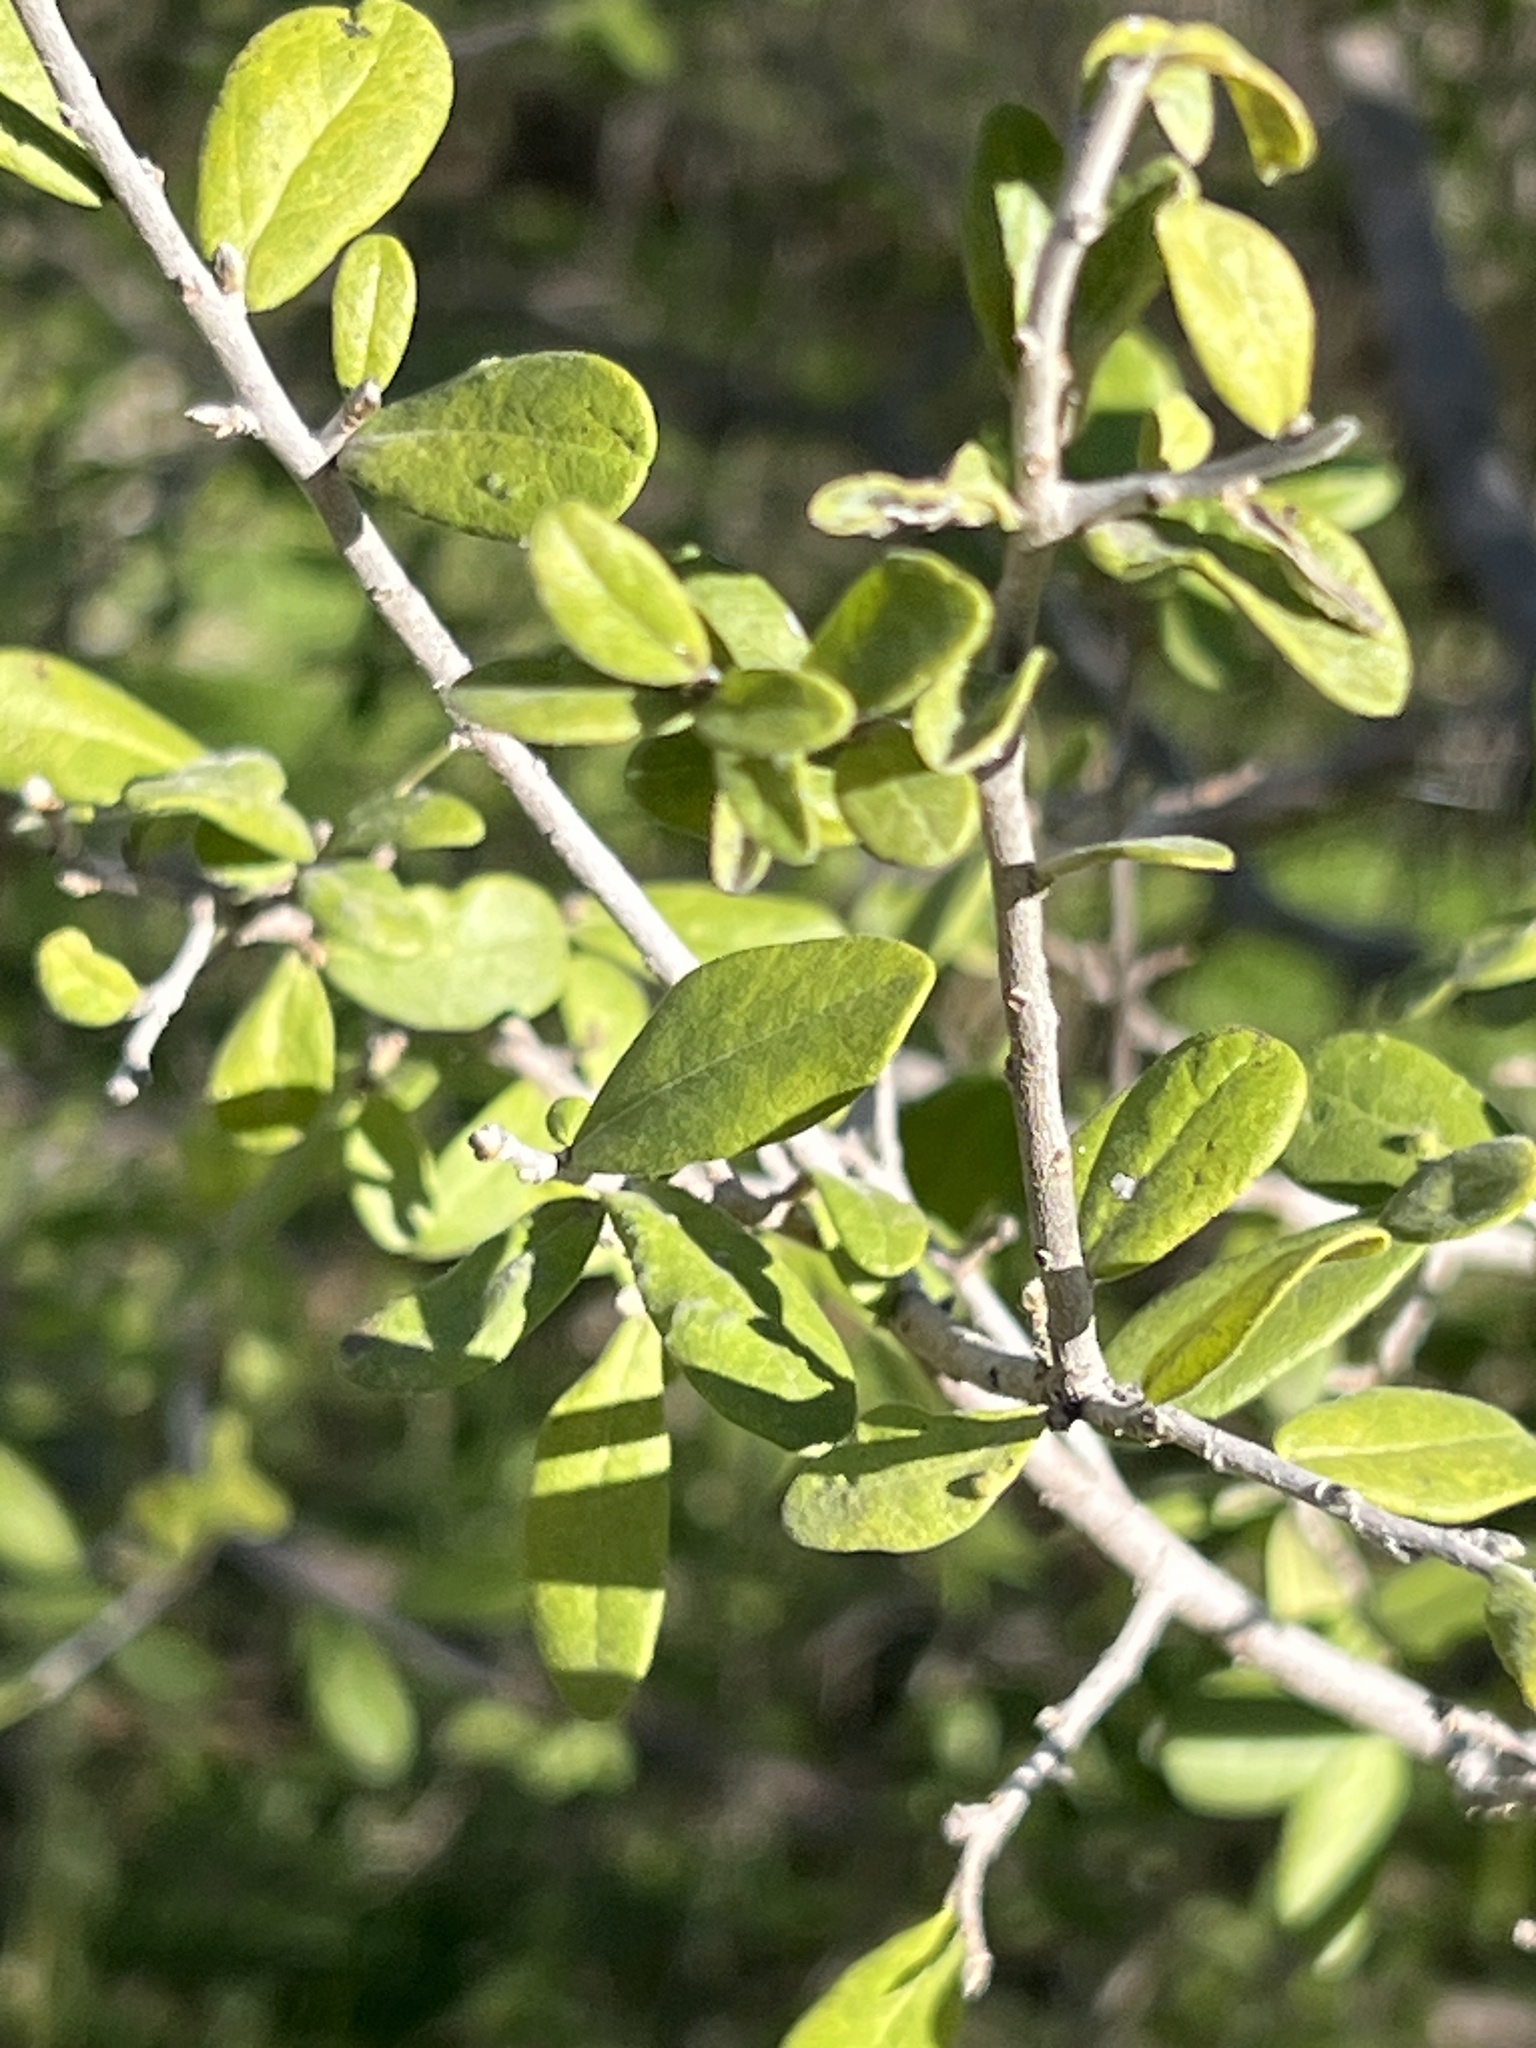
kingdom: Plantae
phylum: Tracheophyta
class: Magnoliopsida
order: Ericales
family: Ebenaceae
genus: Diospyros
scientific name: Diospyros texana
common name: Texas persimmon
